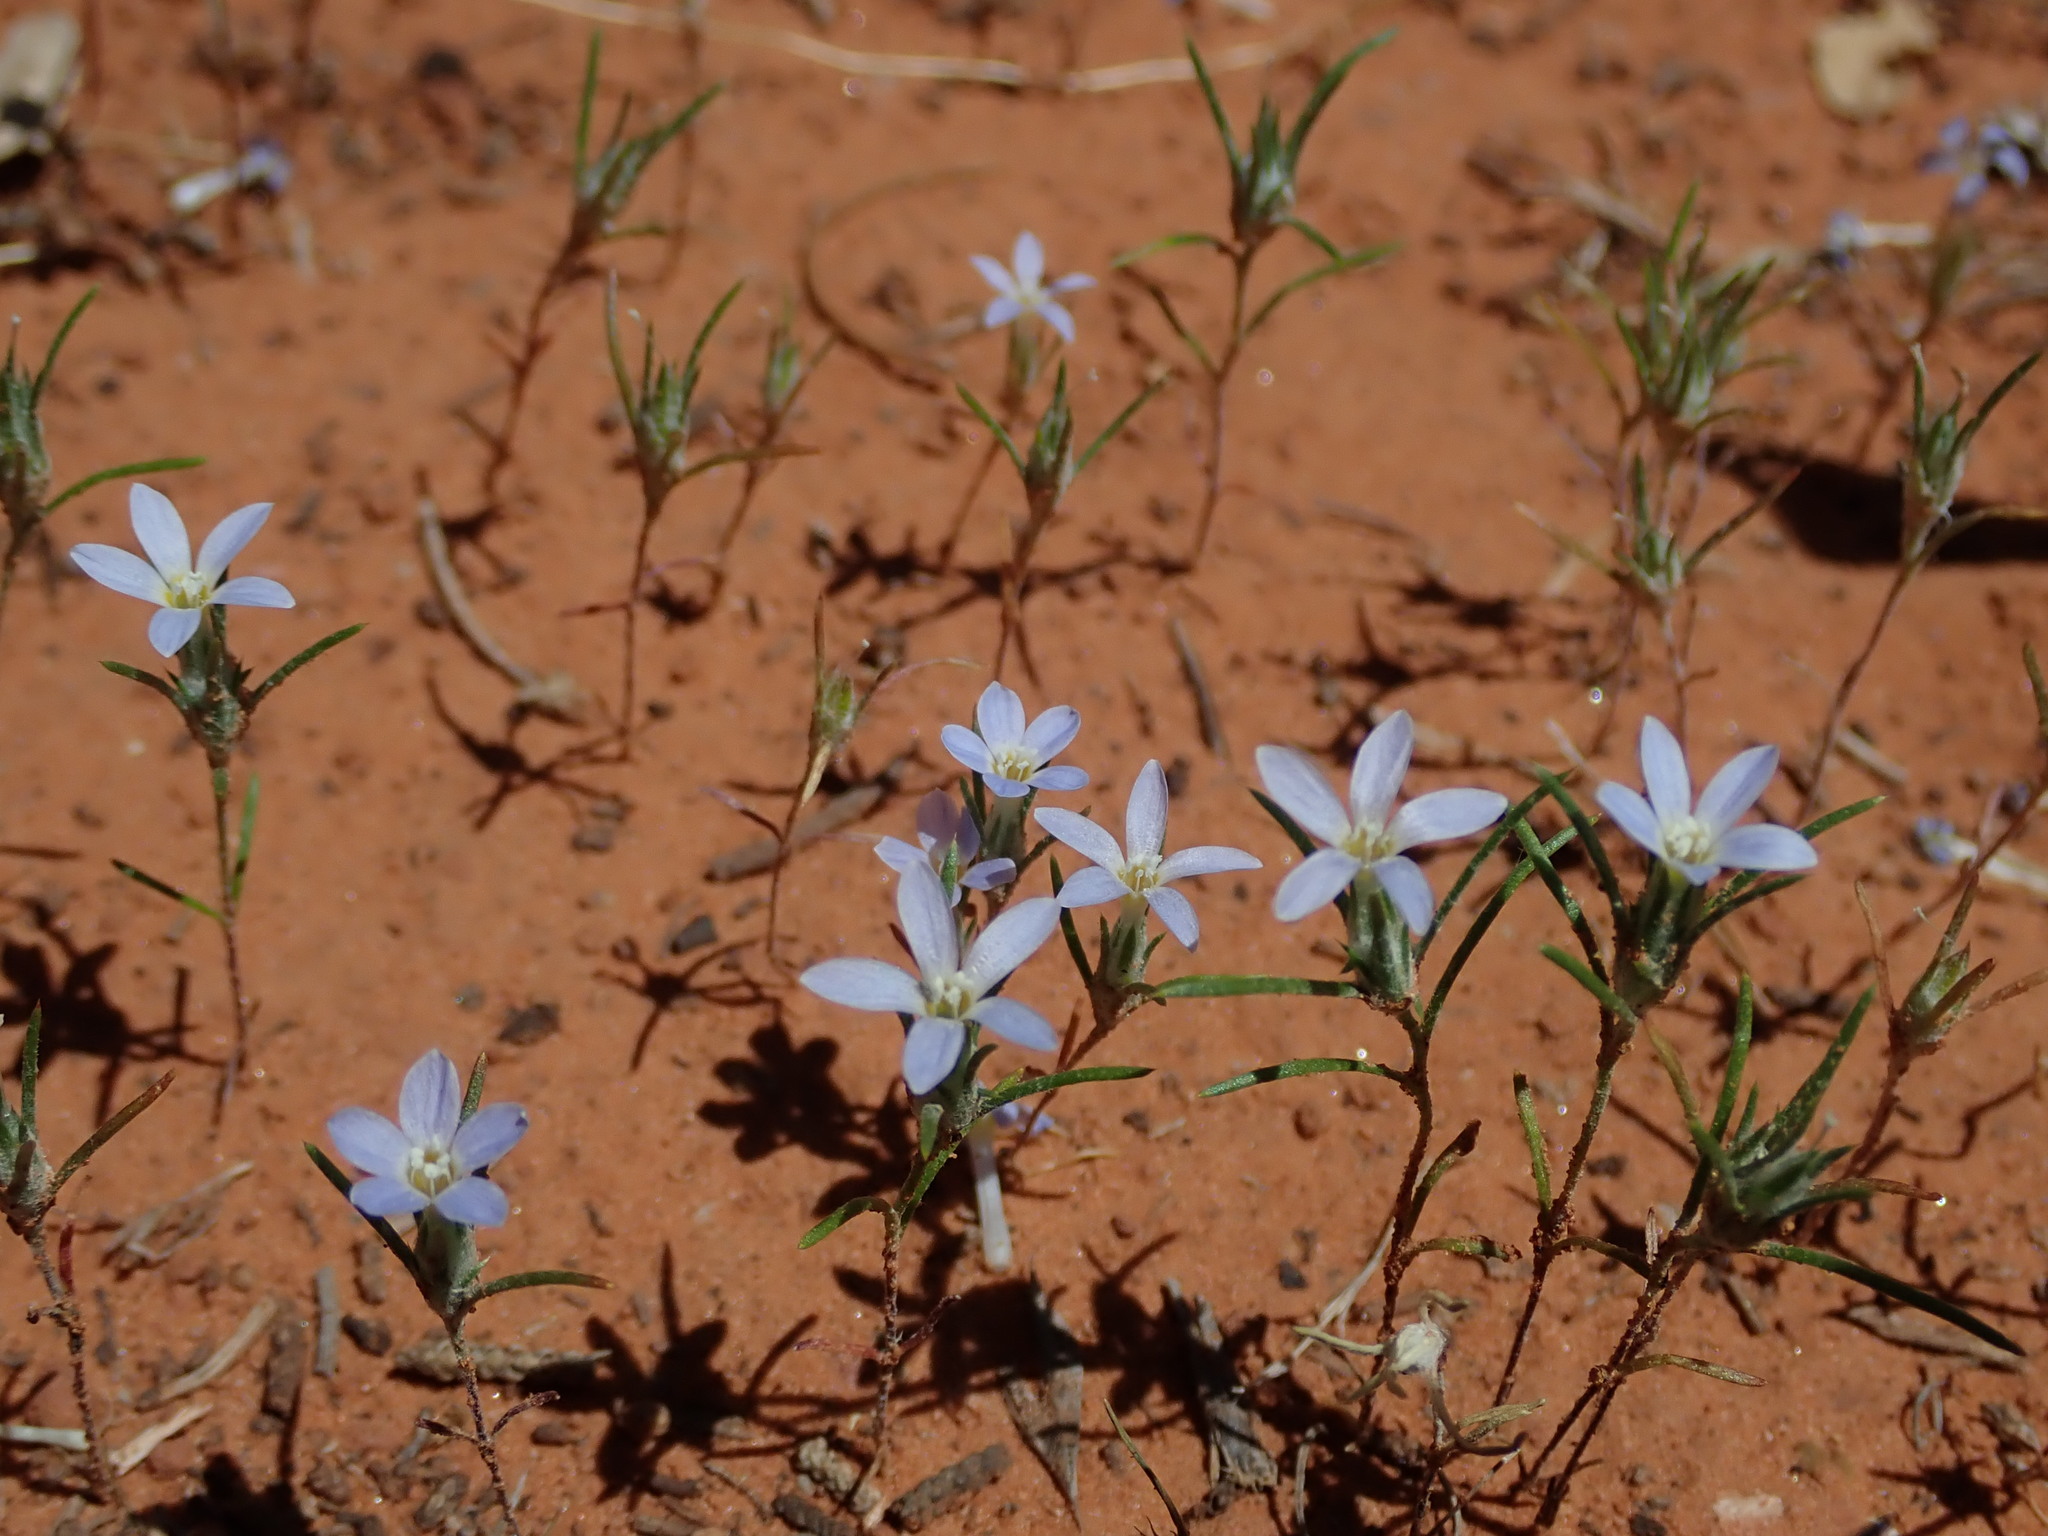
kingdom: Plantae
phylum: Tracheophyta
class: Magnoliopsida
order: Ericales
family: Polemoniaceae
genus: Eriastrum
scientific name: Eriastrum diffusum
